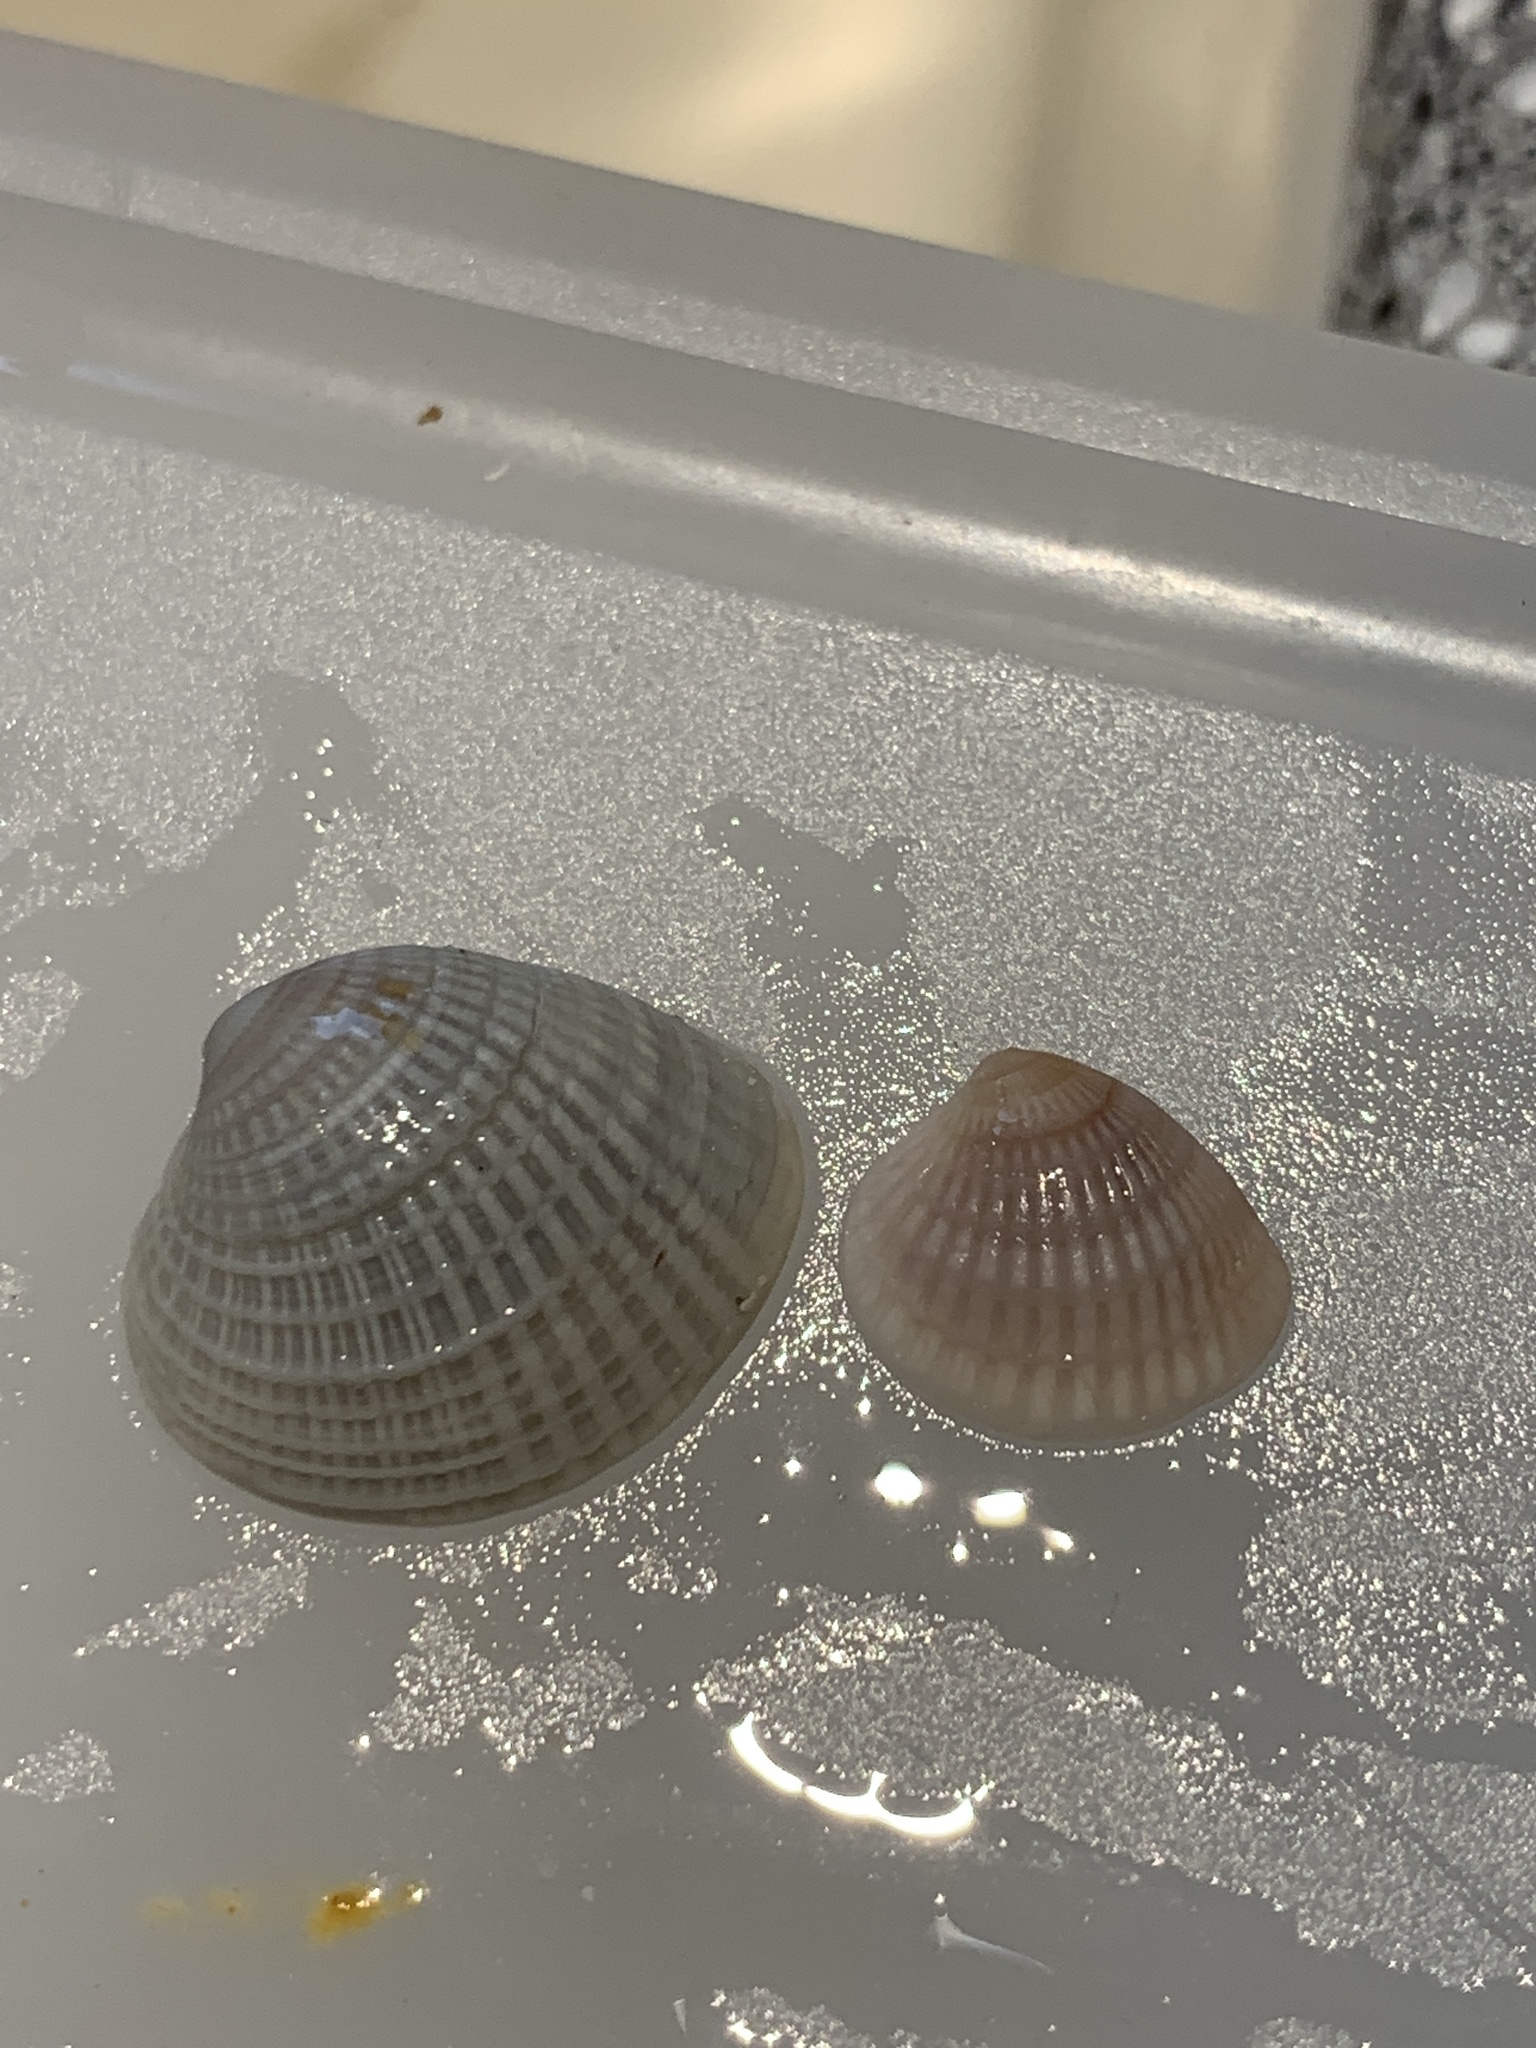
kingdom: Animalia
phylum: Mollusca
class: Bivalvia
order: Venerida
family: Veneridae
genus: Chione
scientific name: Chione elevata
